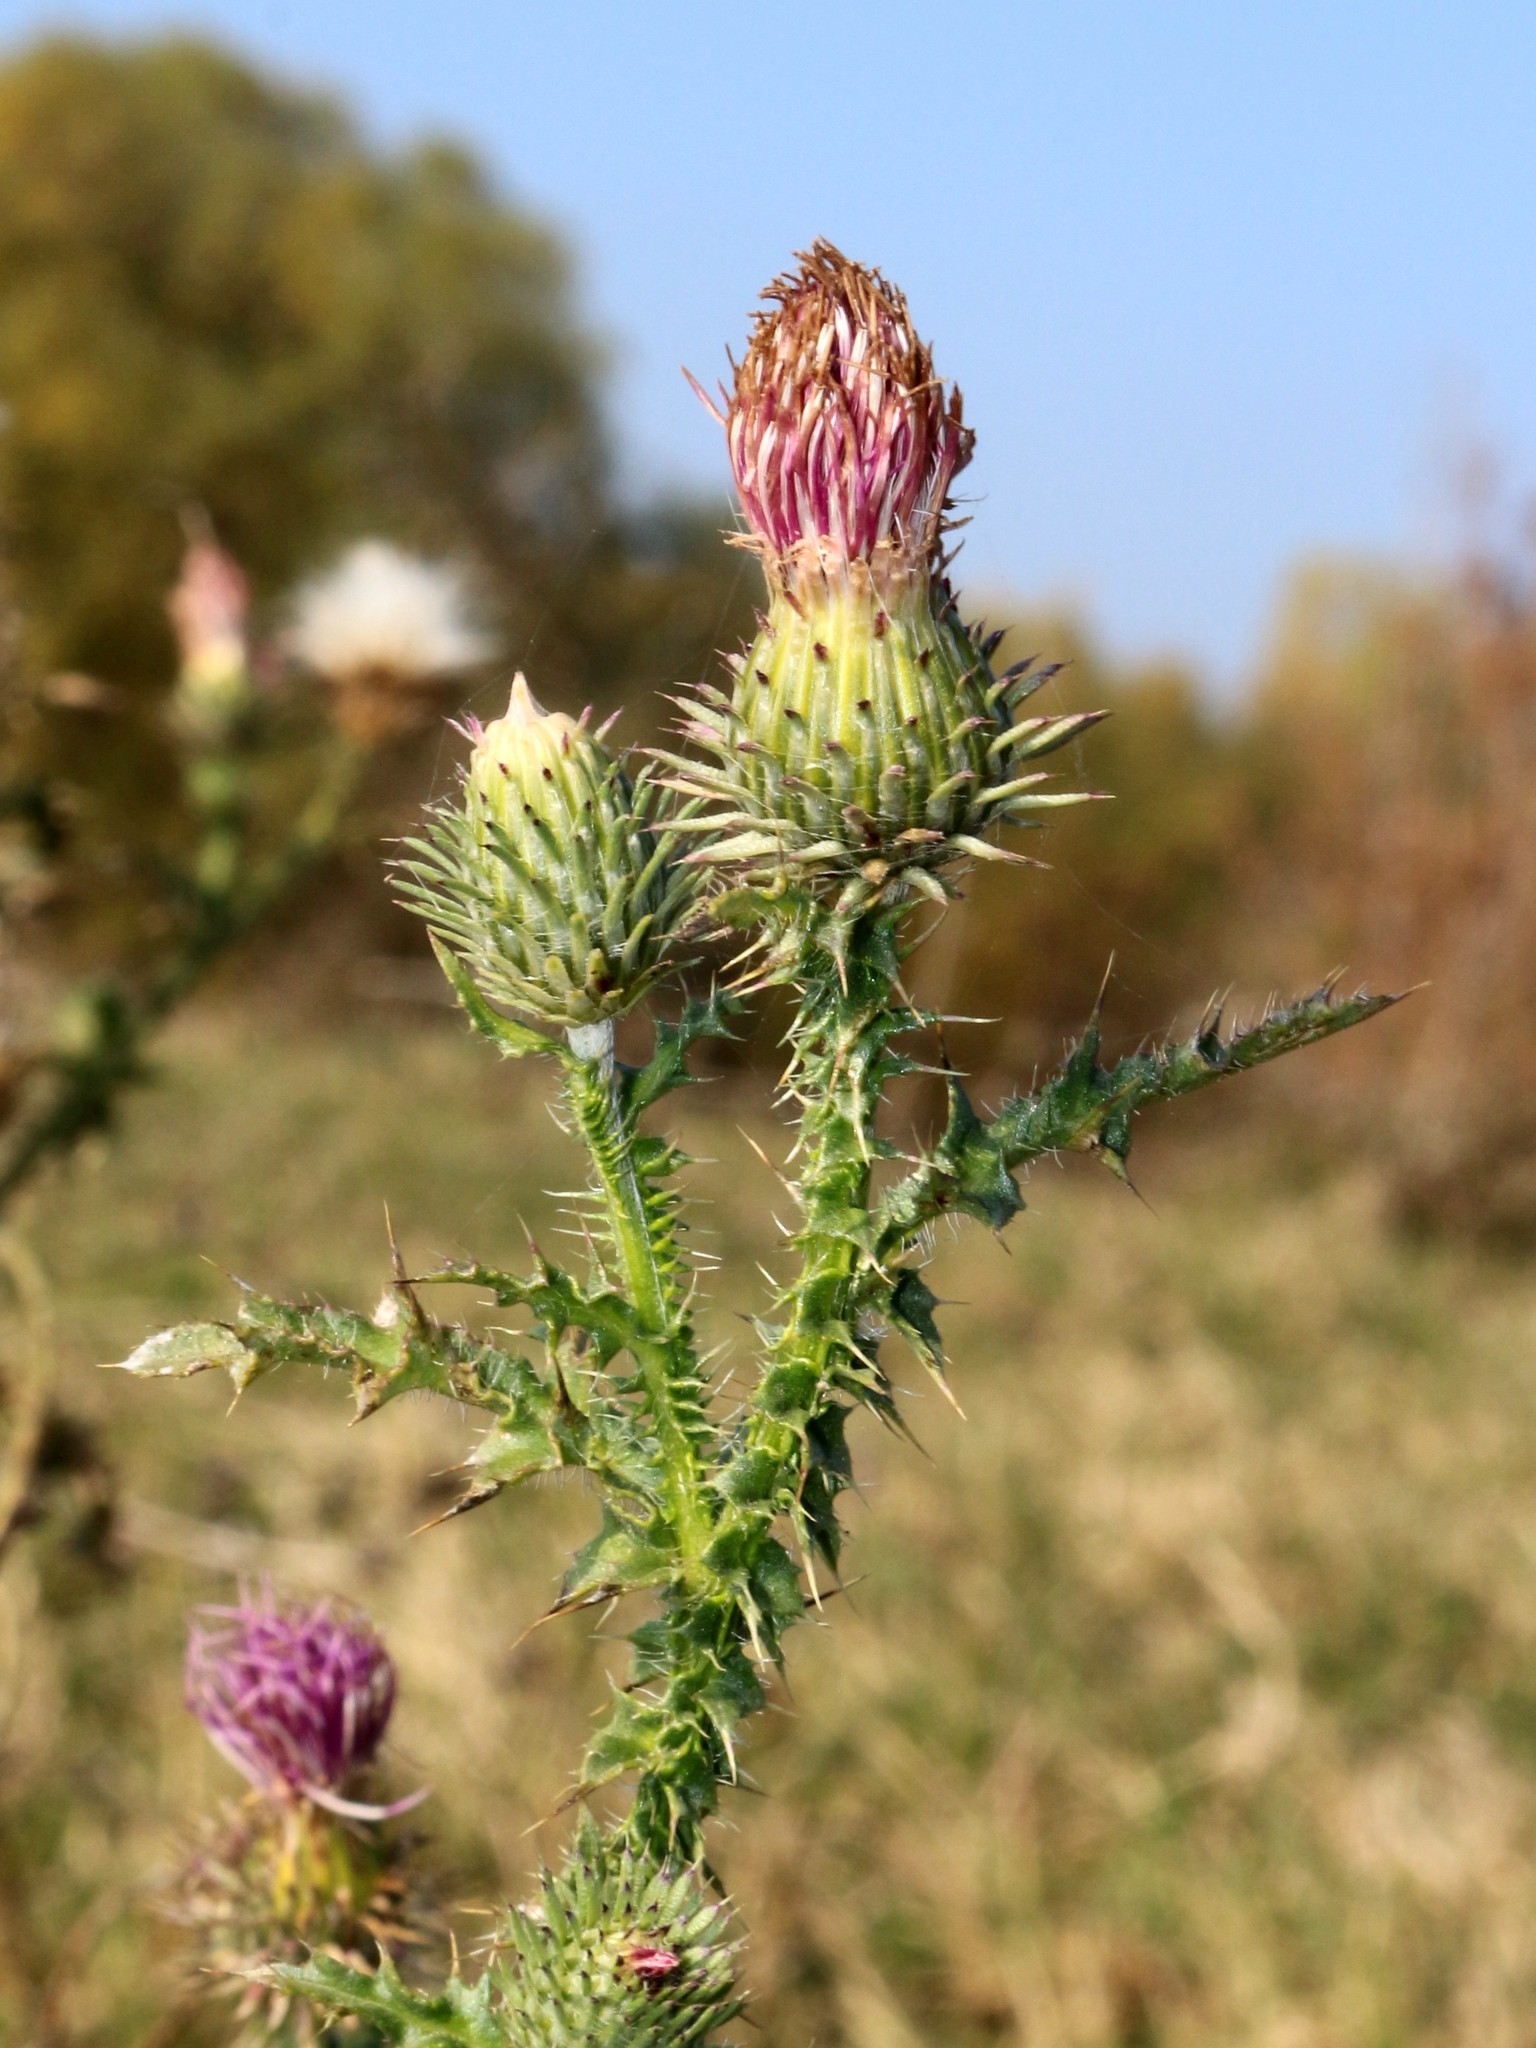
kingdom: Plantae
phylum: Tracheophyta
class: Magnoliopsida
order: Asterales
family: Asteraceae
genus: Carduus
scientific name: Carduus acanthoides
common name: Plumeless thistle
